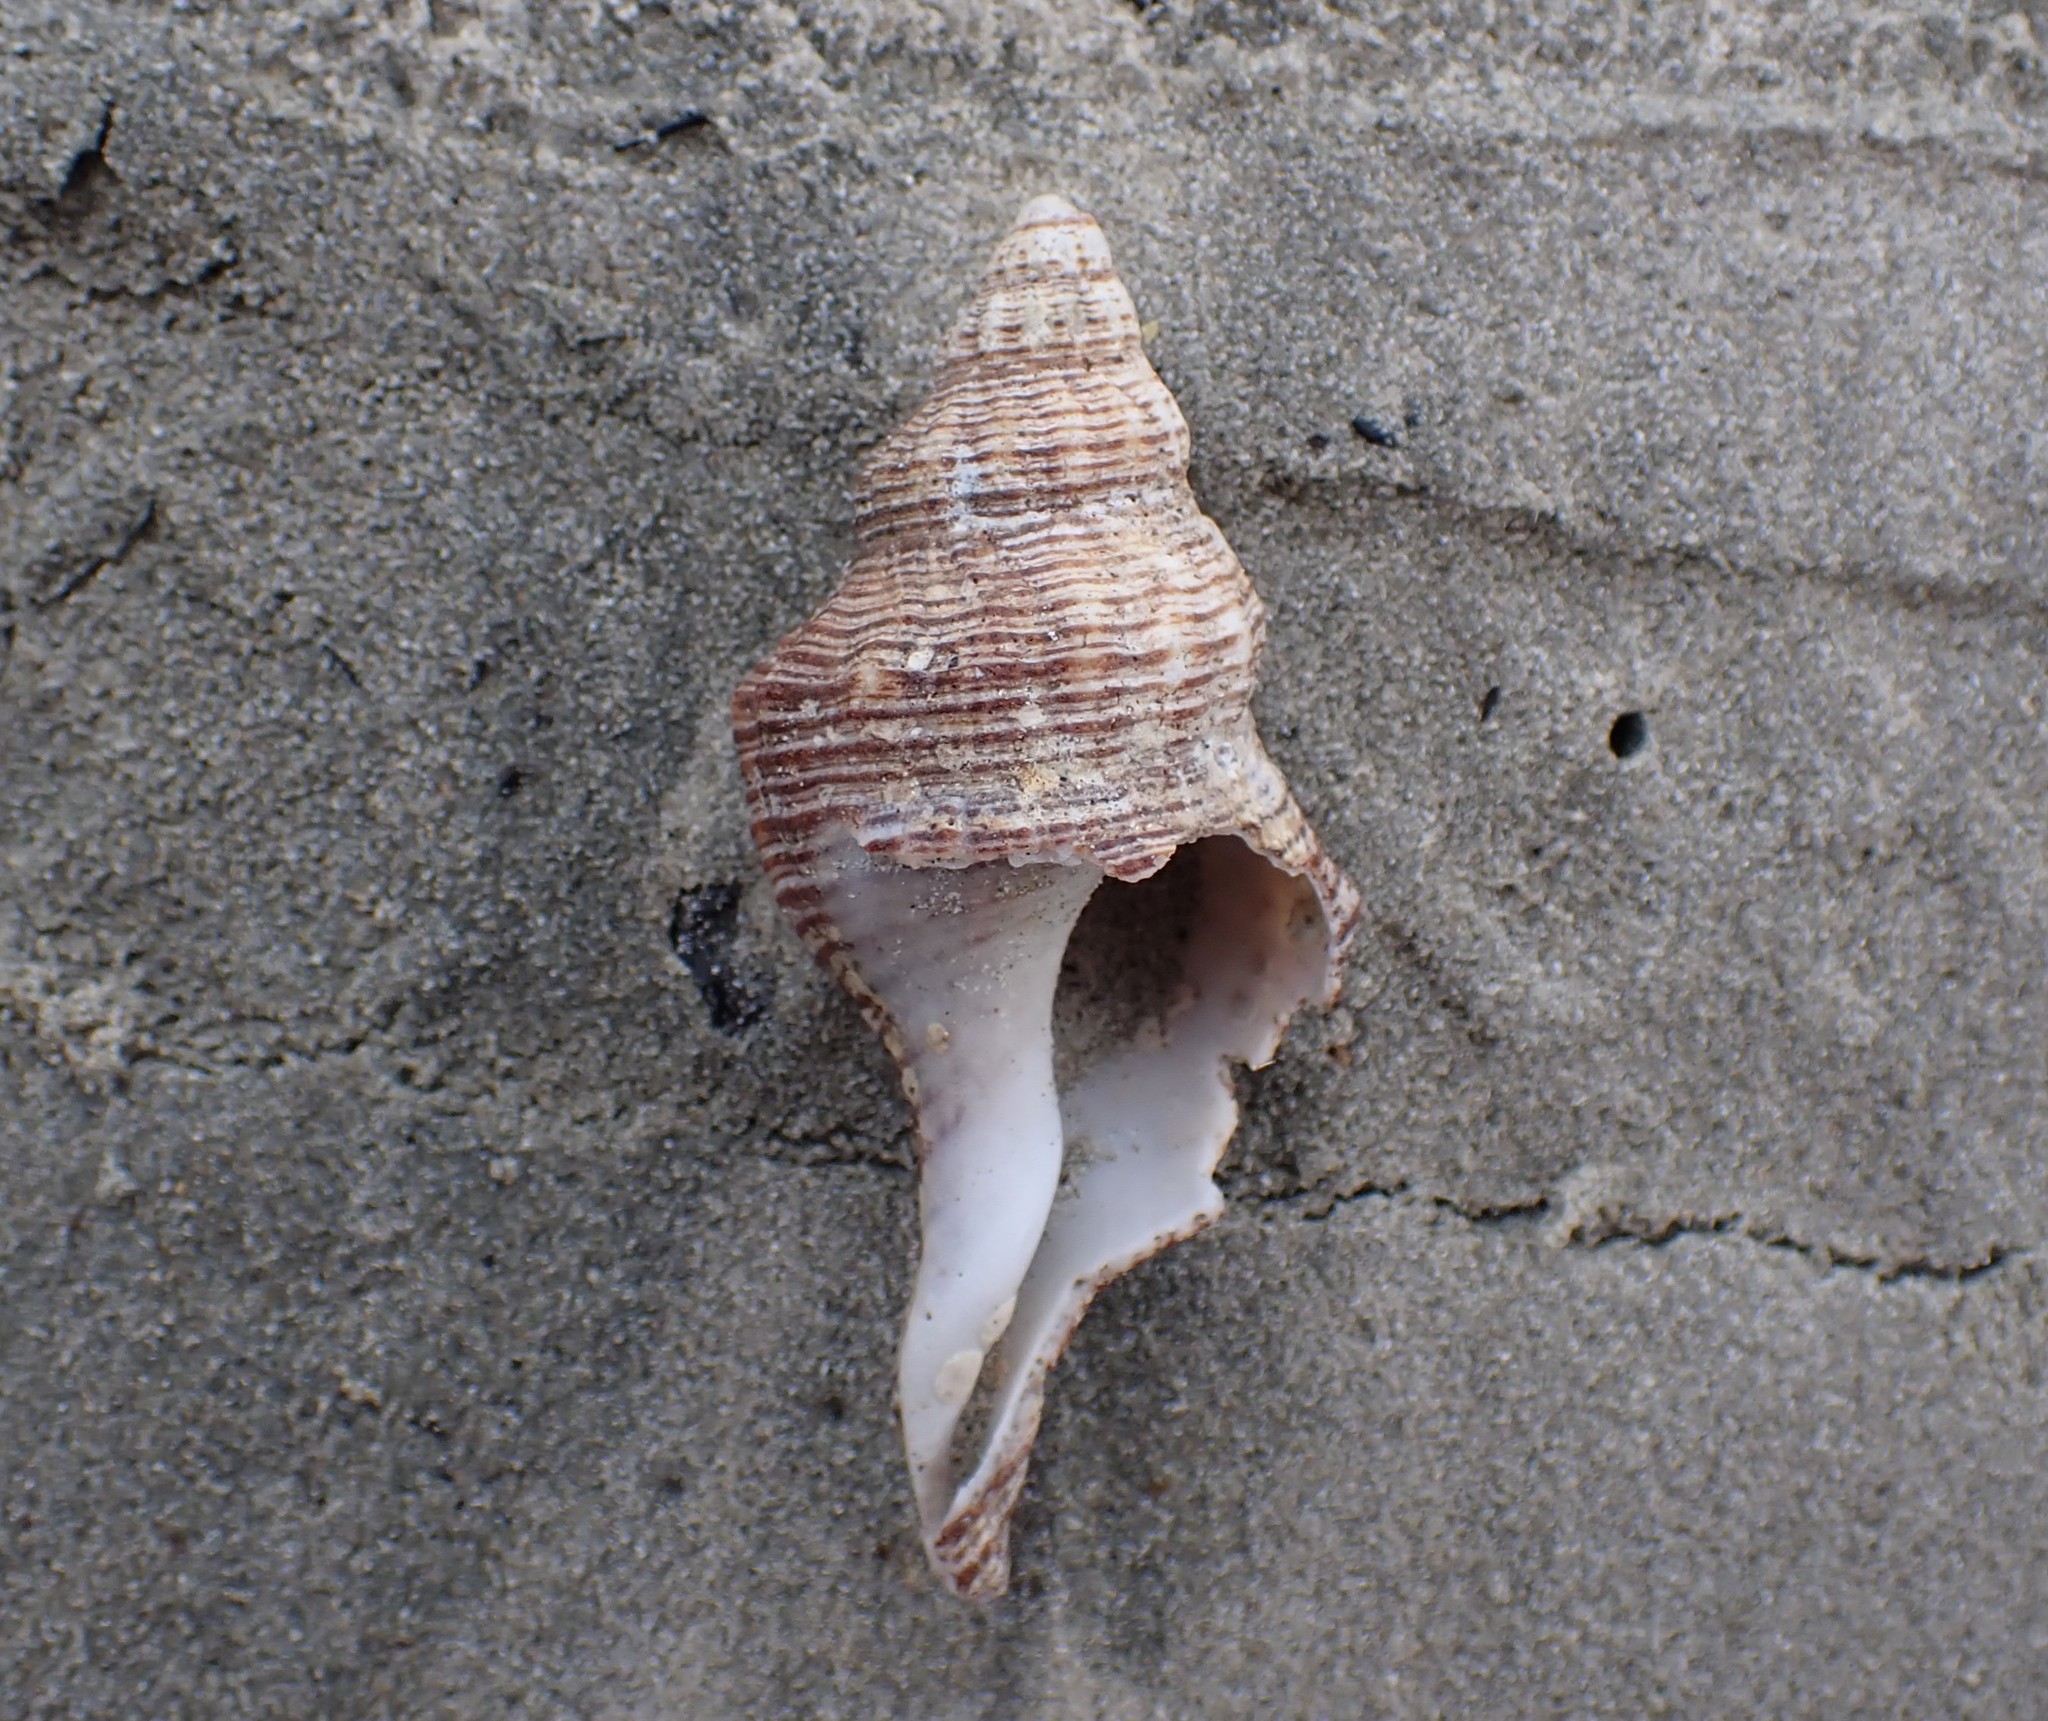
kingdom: Animalia
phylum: Mollusca
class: Gastropoda
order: Neogastropoda
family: Austrosiphonidae
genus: Penion
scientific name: Penion sulcatus
